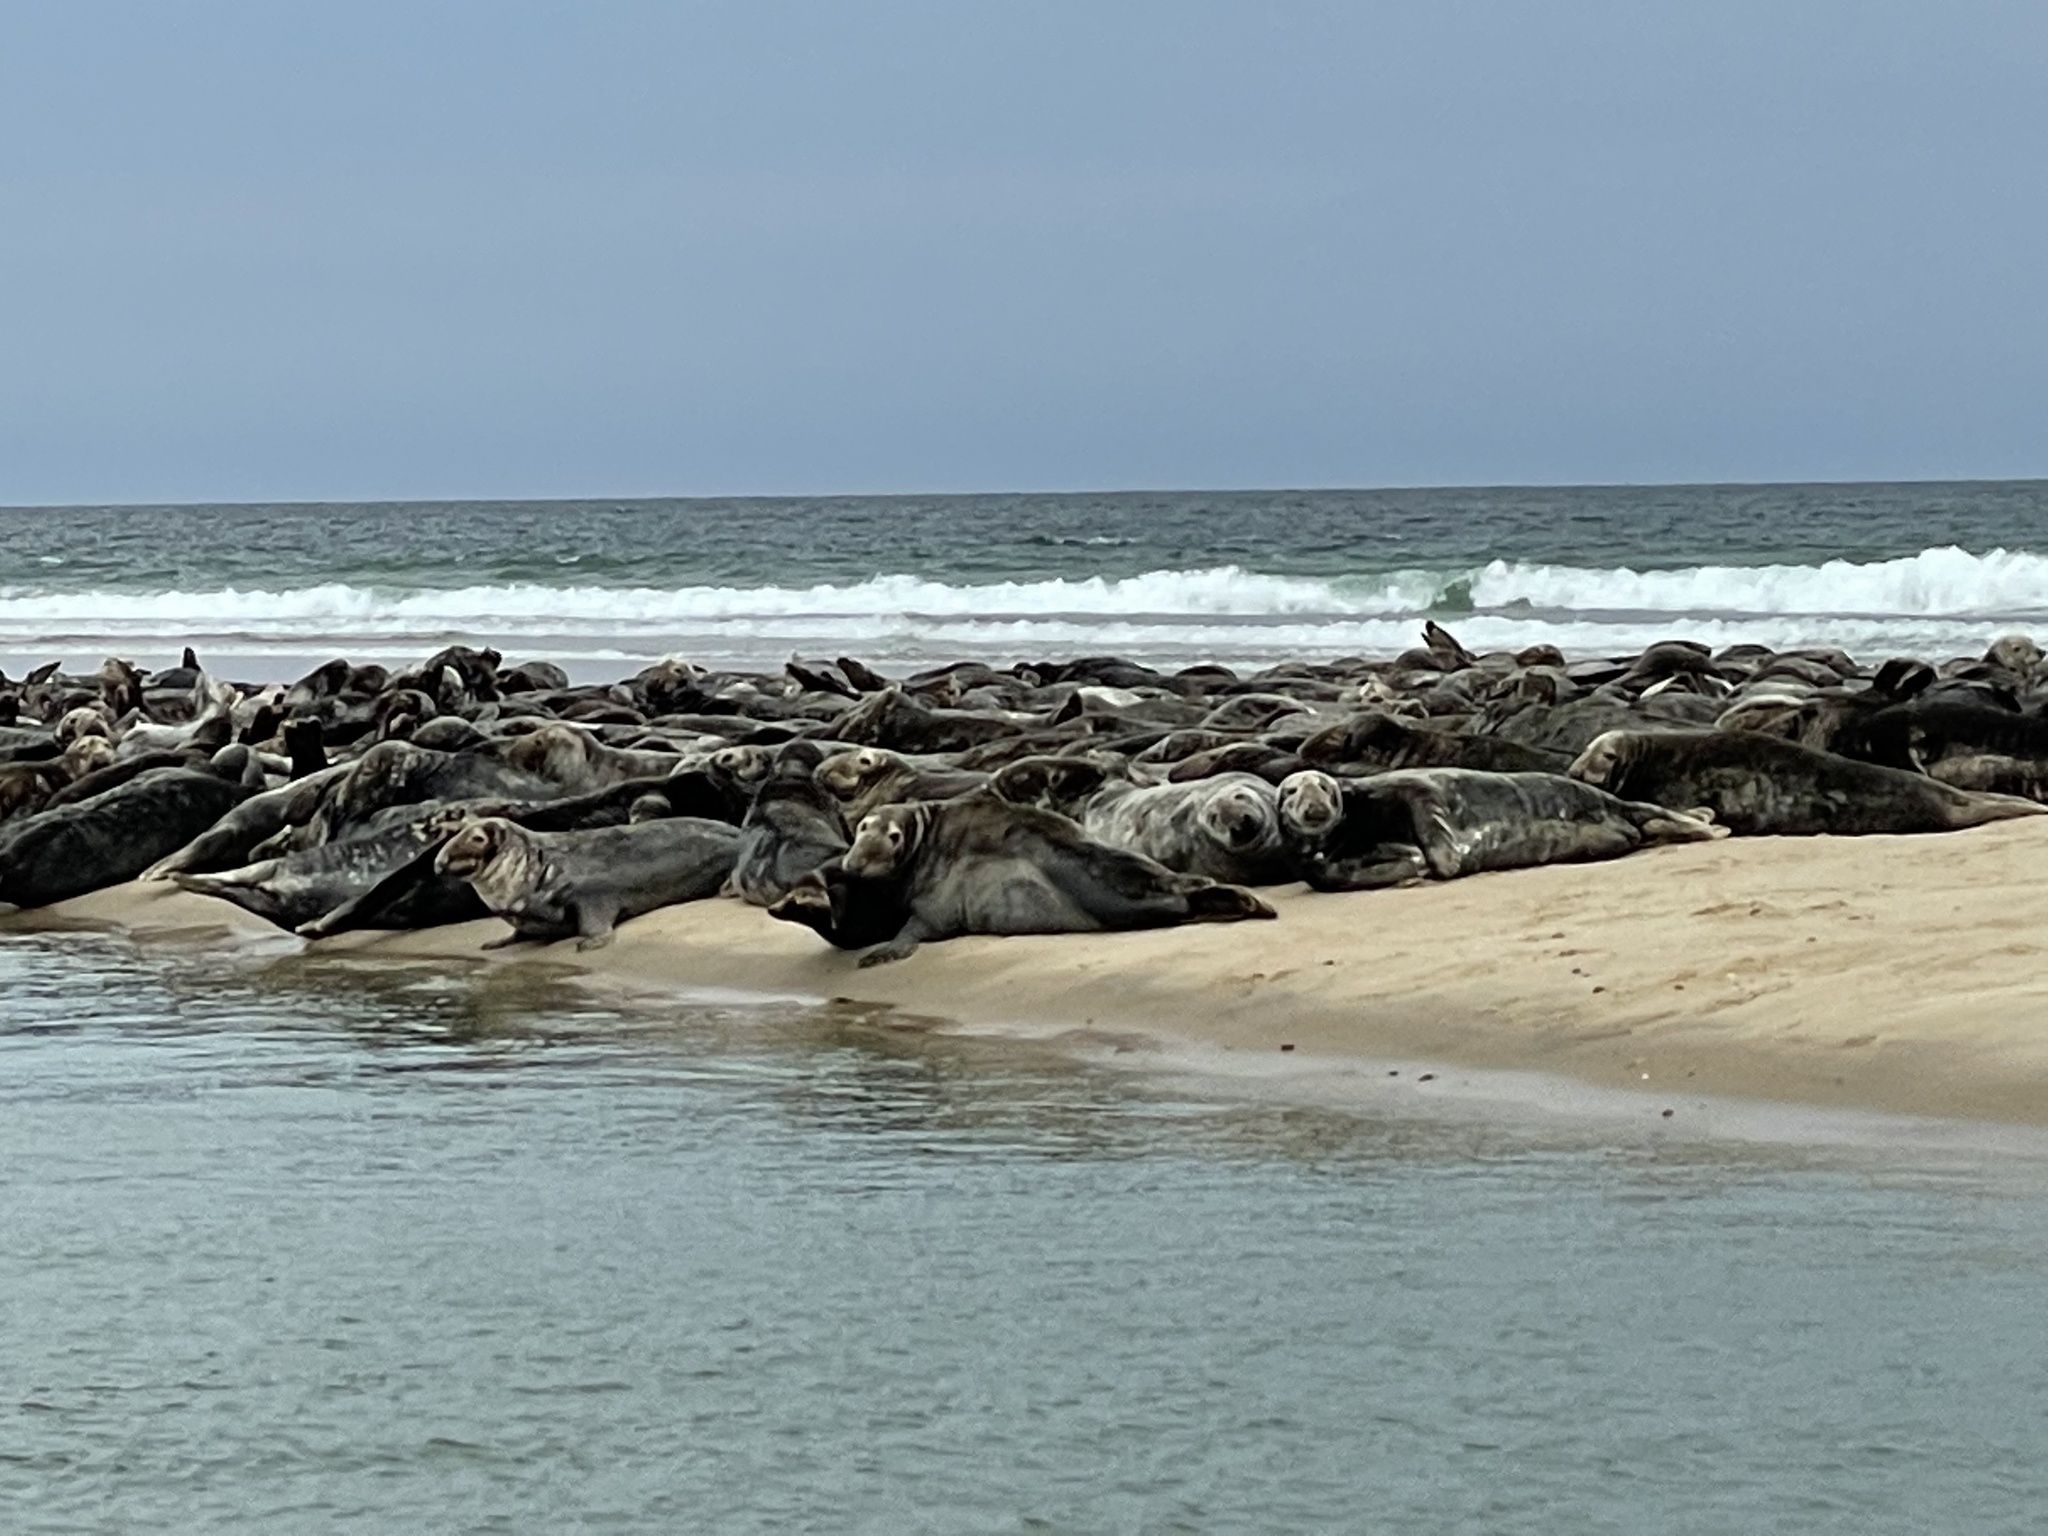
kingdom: Animalia
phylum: Chordata
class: Mammalia
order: Carnivora
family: Phocidae
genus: Halichoerus
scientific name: Halichoerus grypus
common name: Grey seal
